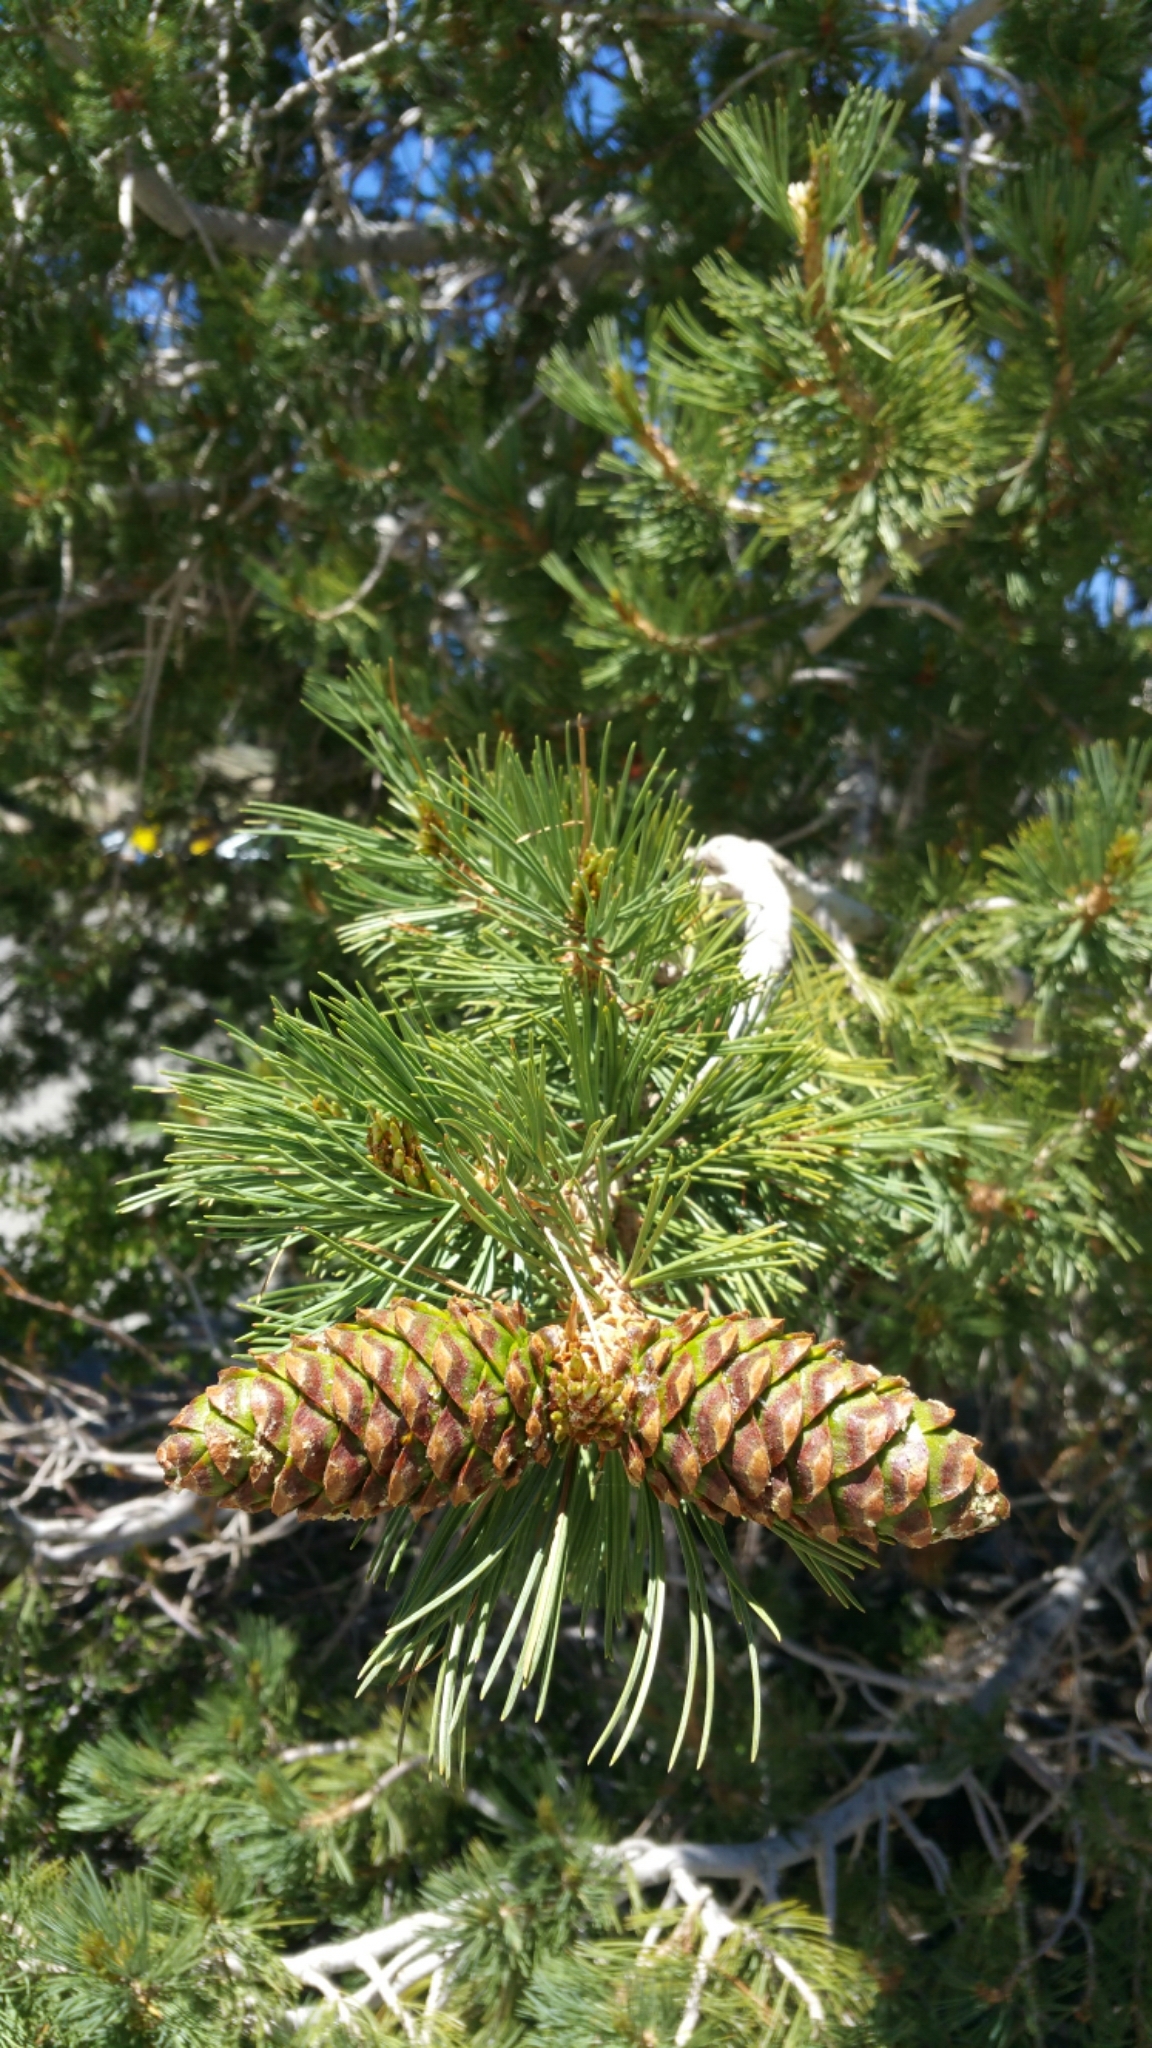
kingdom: Plantae
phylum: Tracheophyta
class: Pinopsida
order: Pinales
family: Pinaceae
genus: Pinus
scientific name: Pinus flexilis
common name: Limber pine
